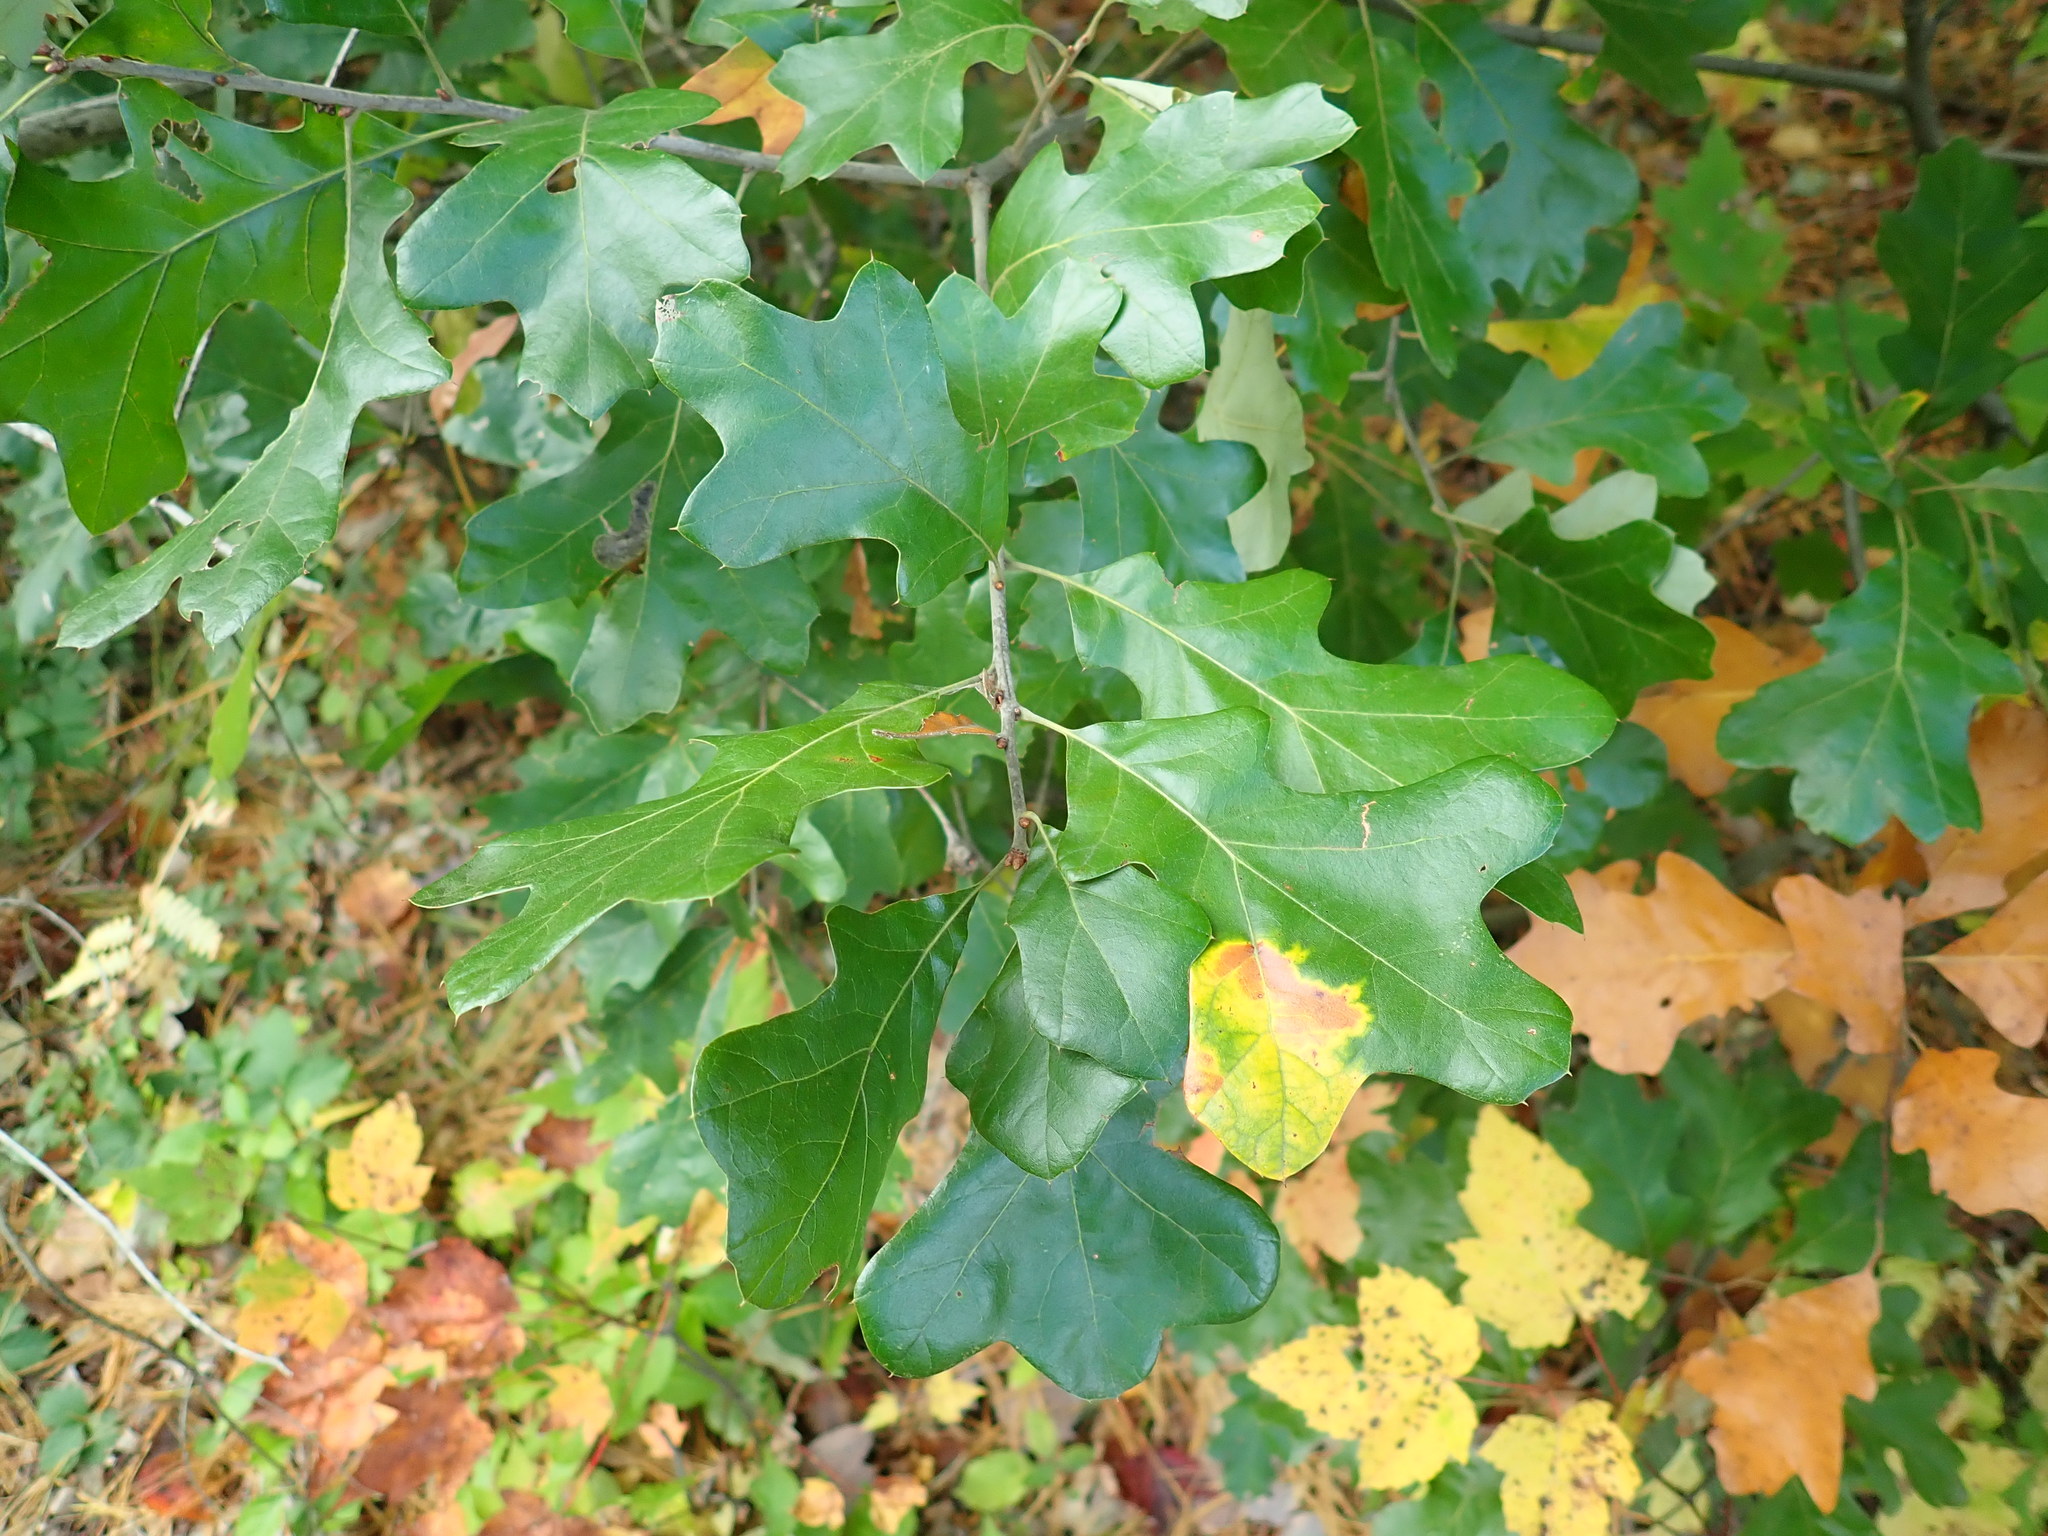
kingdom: Plantae
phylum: Tracheophyta
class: Magnoliopsida
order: Fagales
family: Fagaceae
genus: Quercus
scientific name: Quercus ilicifolia
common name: Bear oak
